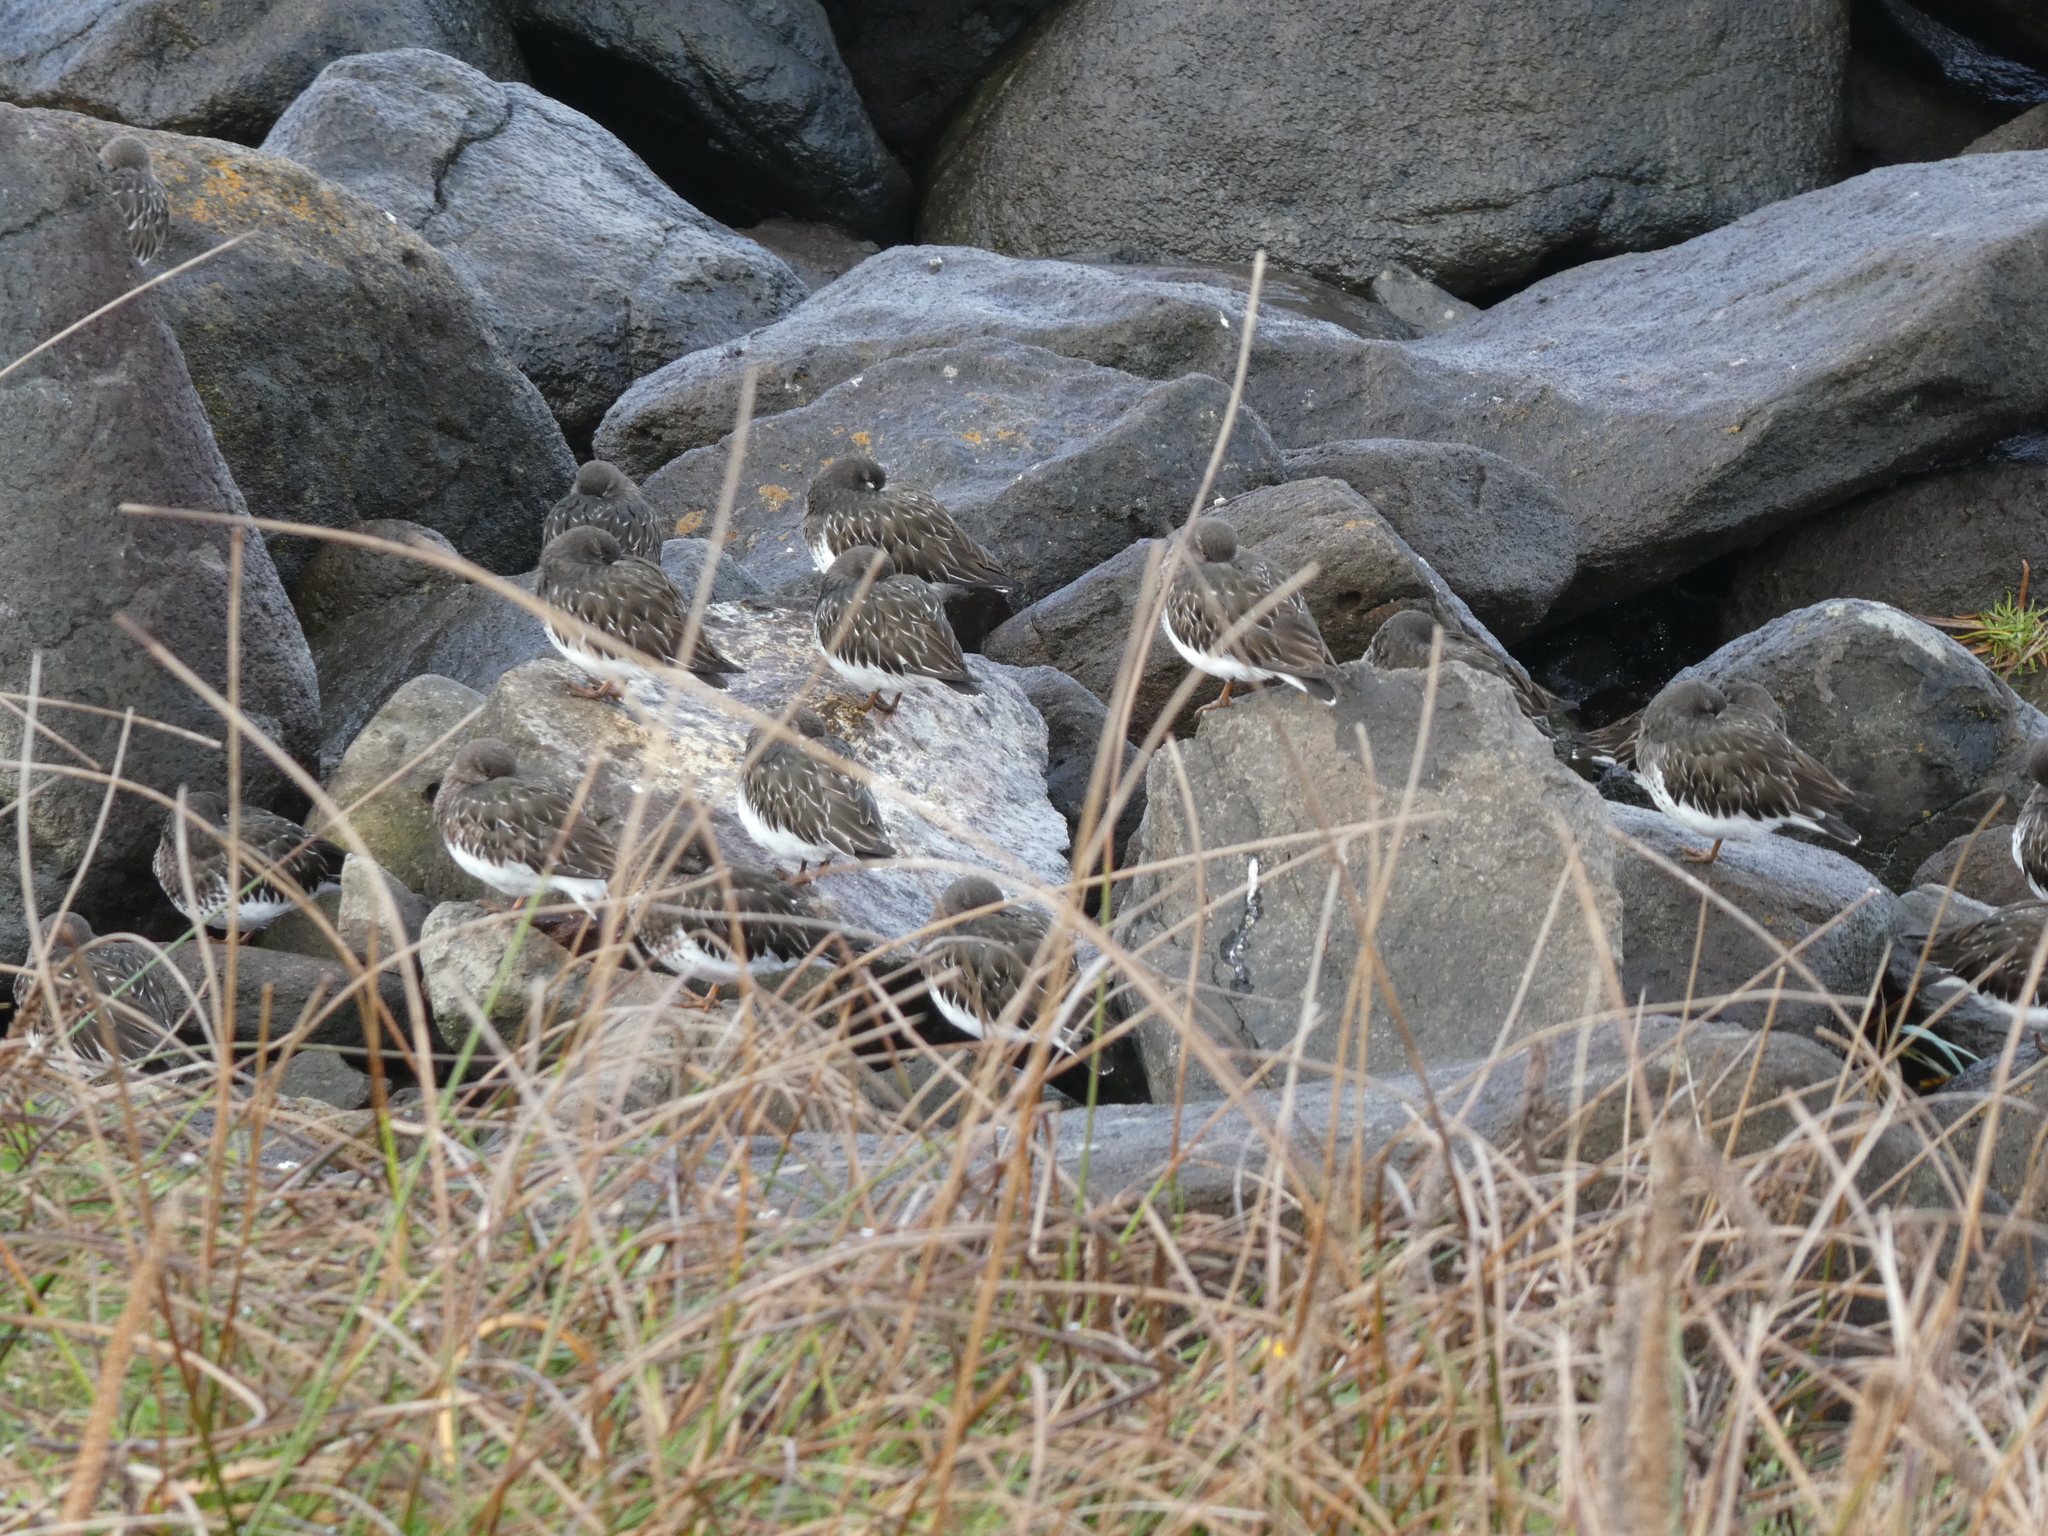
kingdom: Animalia
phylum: Chordata
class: Aves
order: Charadriiformes
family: Scolopacidae
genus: Arenaria
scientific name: Arenaria melanocephala
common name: Black turnstone
